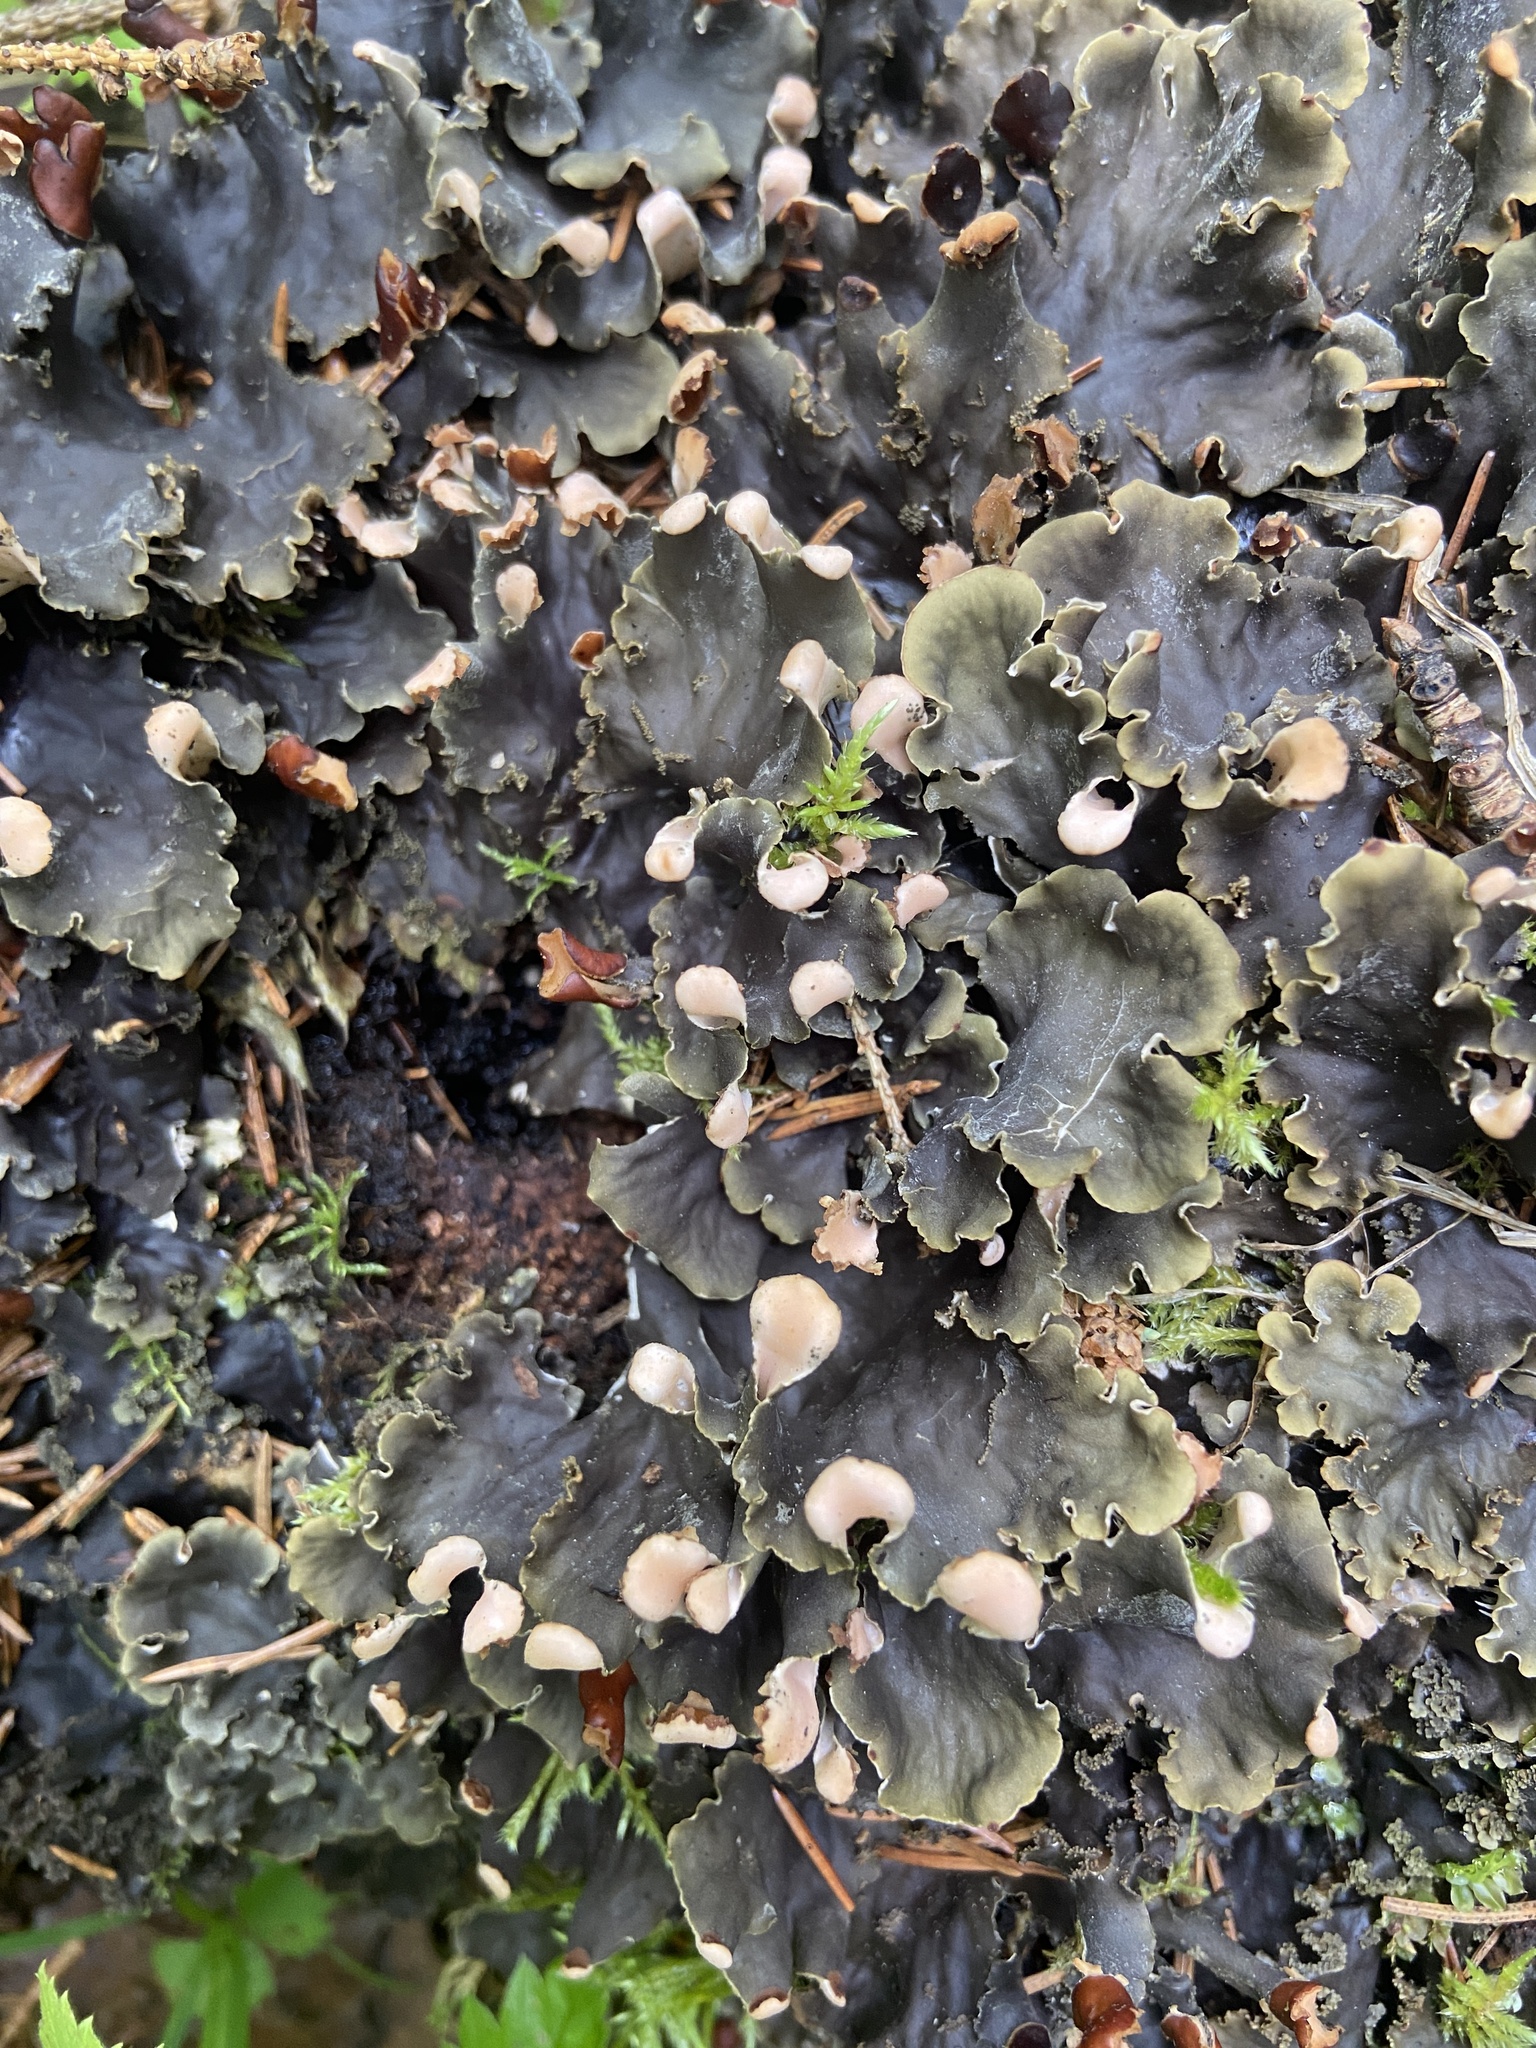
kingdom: Fungi
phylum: Ascomycota
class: Lecanoromycetes
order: Peltigerales
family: Peltigeraceae
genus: Peltigera
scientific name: Peltigera praetextata
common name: Scaly dog-lichen
